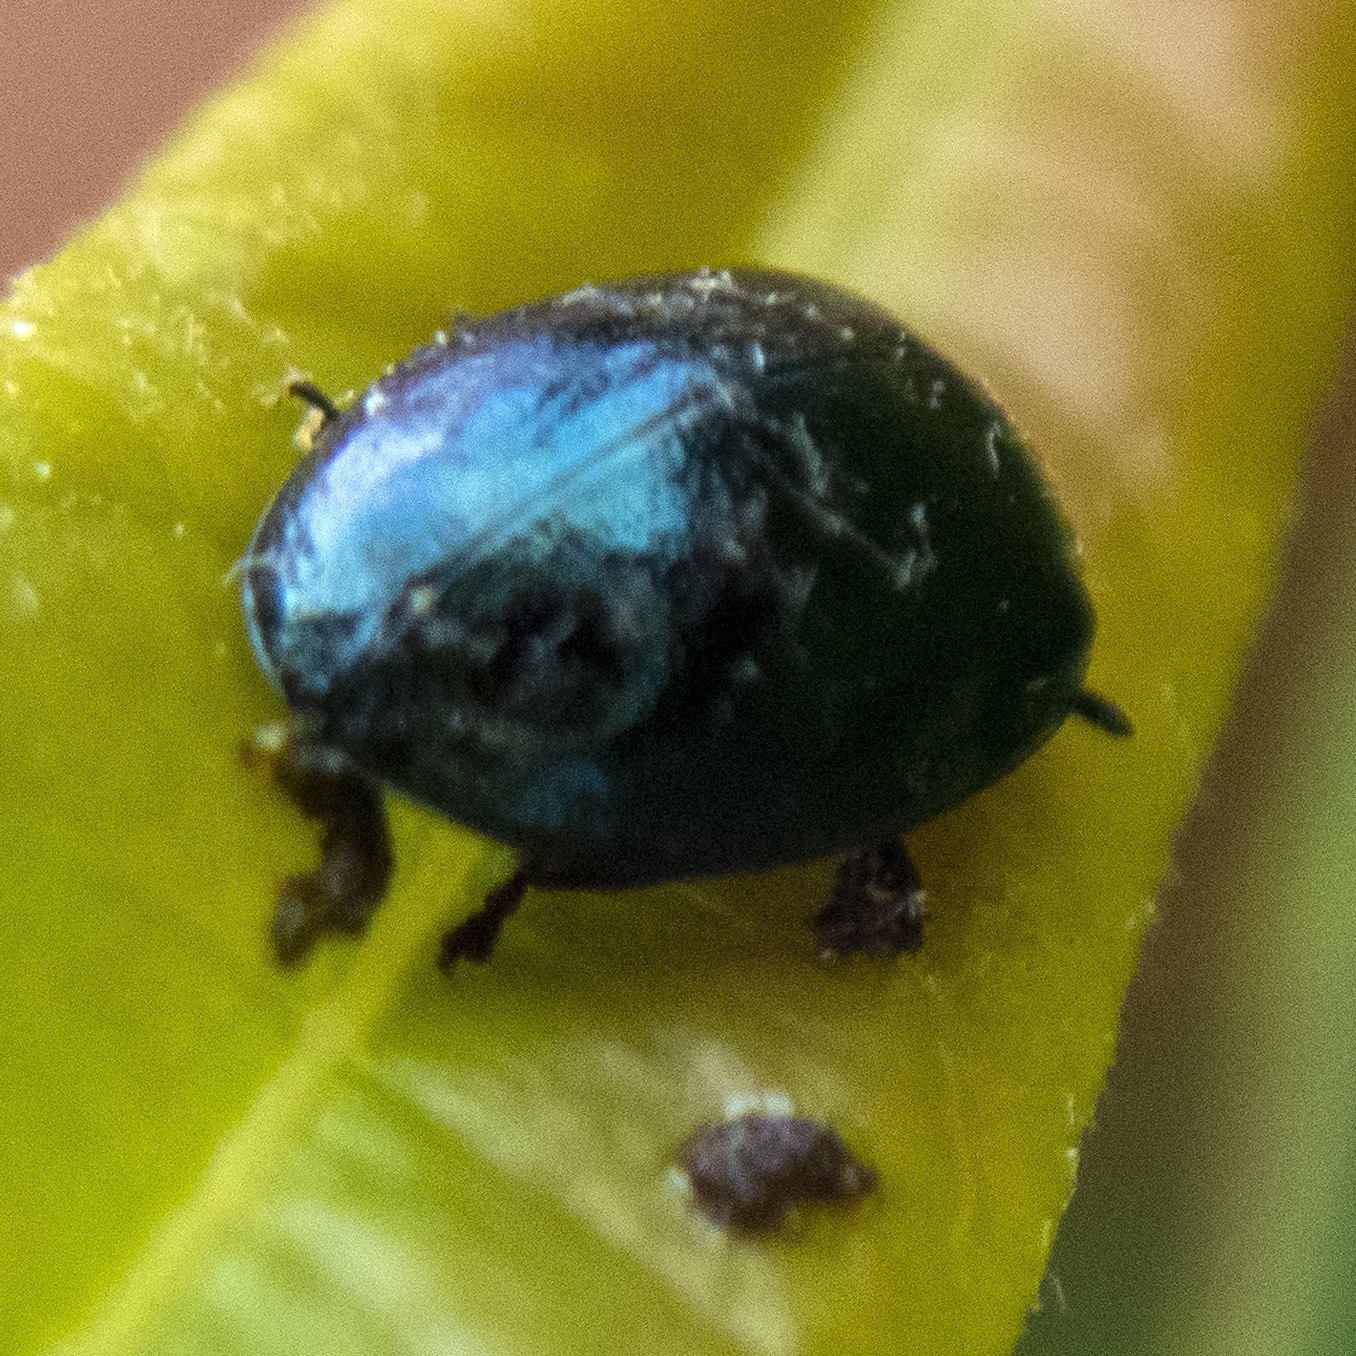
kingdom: Animalia
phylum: Arthropoda
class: Insecta
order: Coleoptera
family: Chrysomelidae
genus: Plagiodera
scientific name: Plagiodera versicolora
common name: Imported willow leaf beetle
